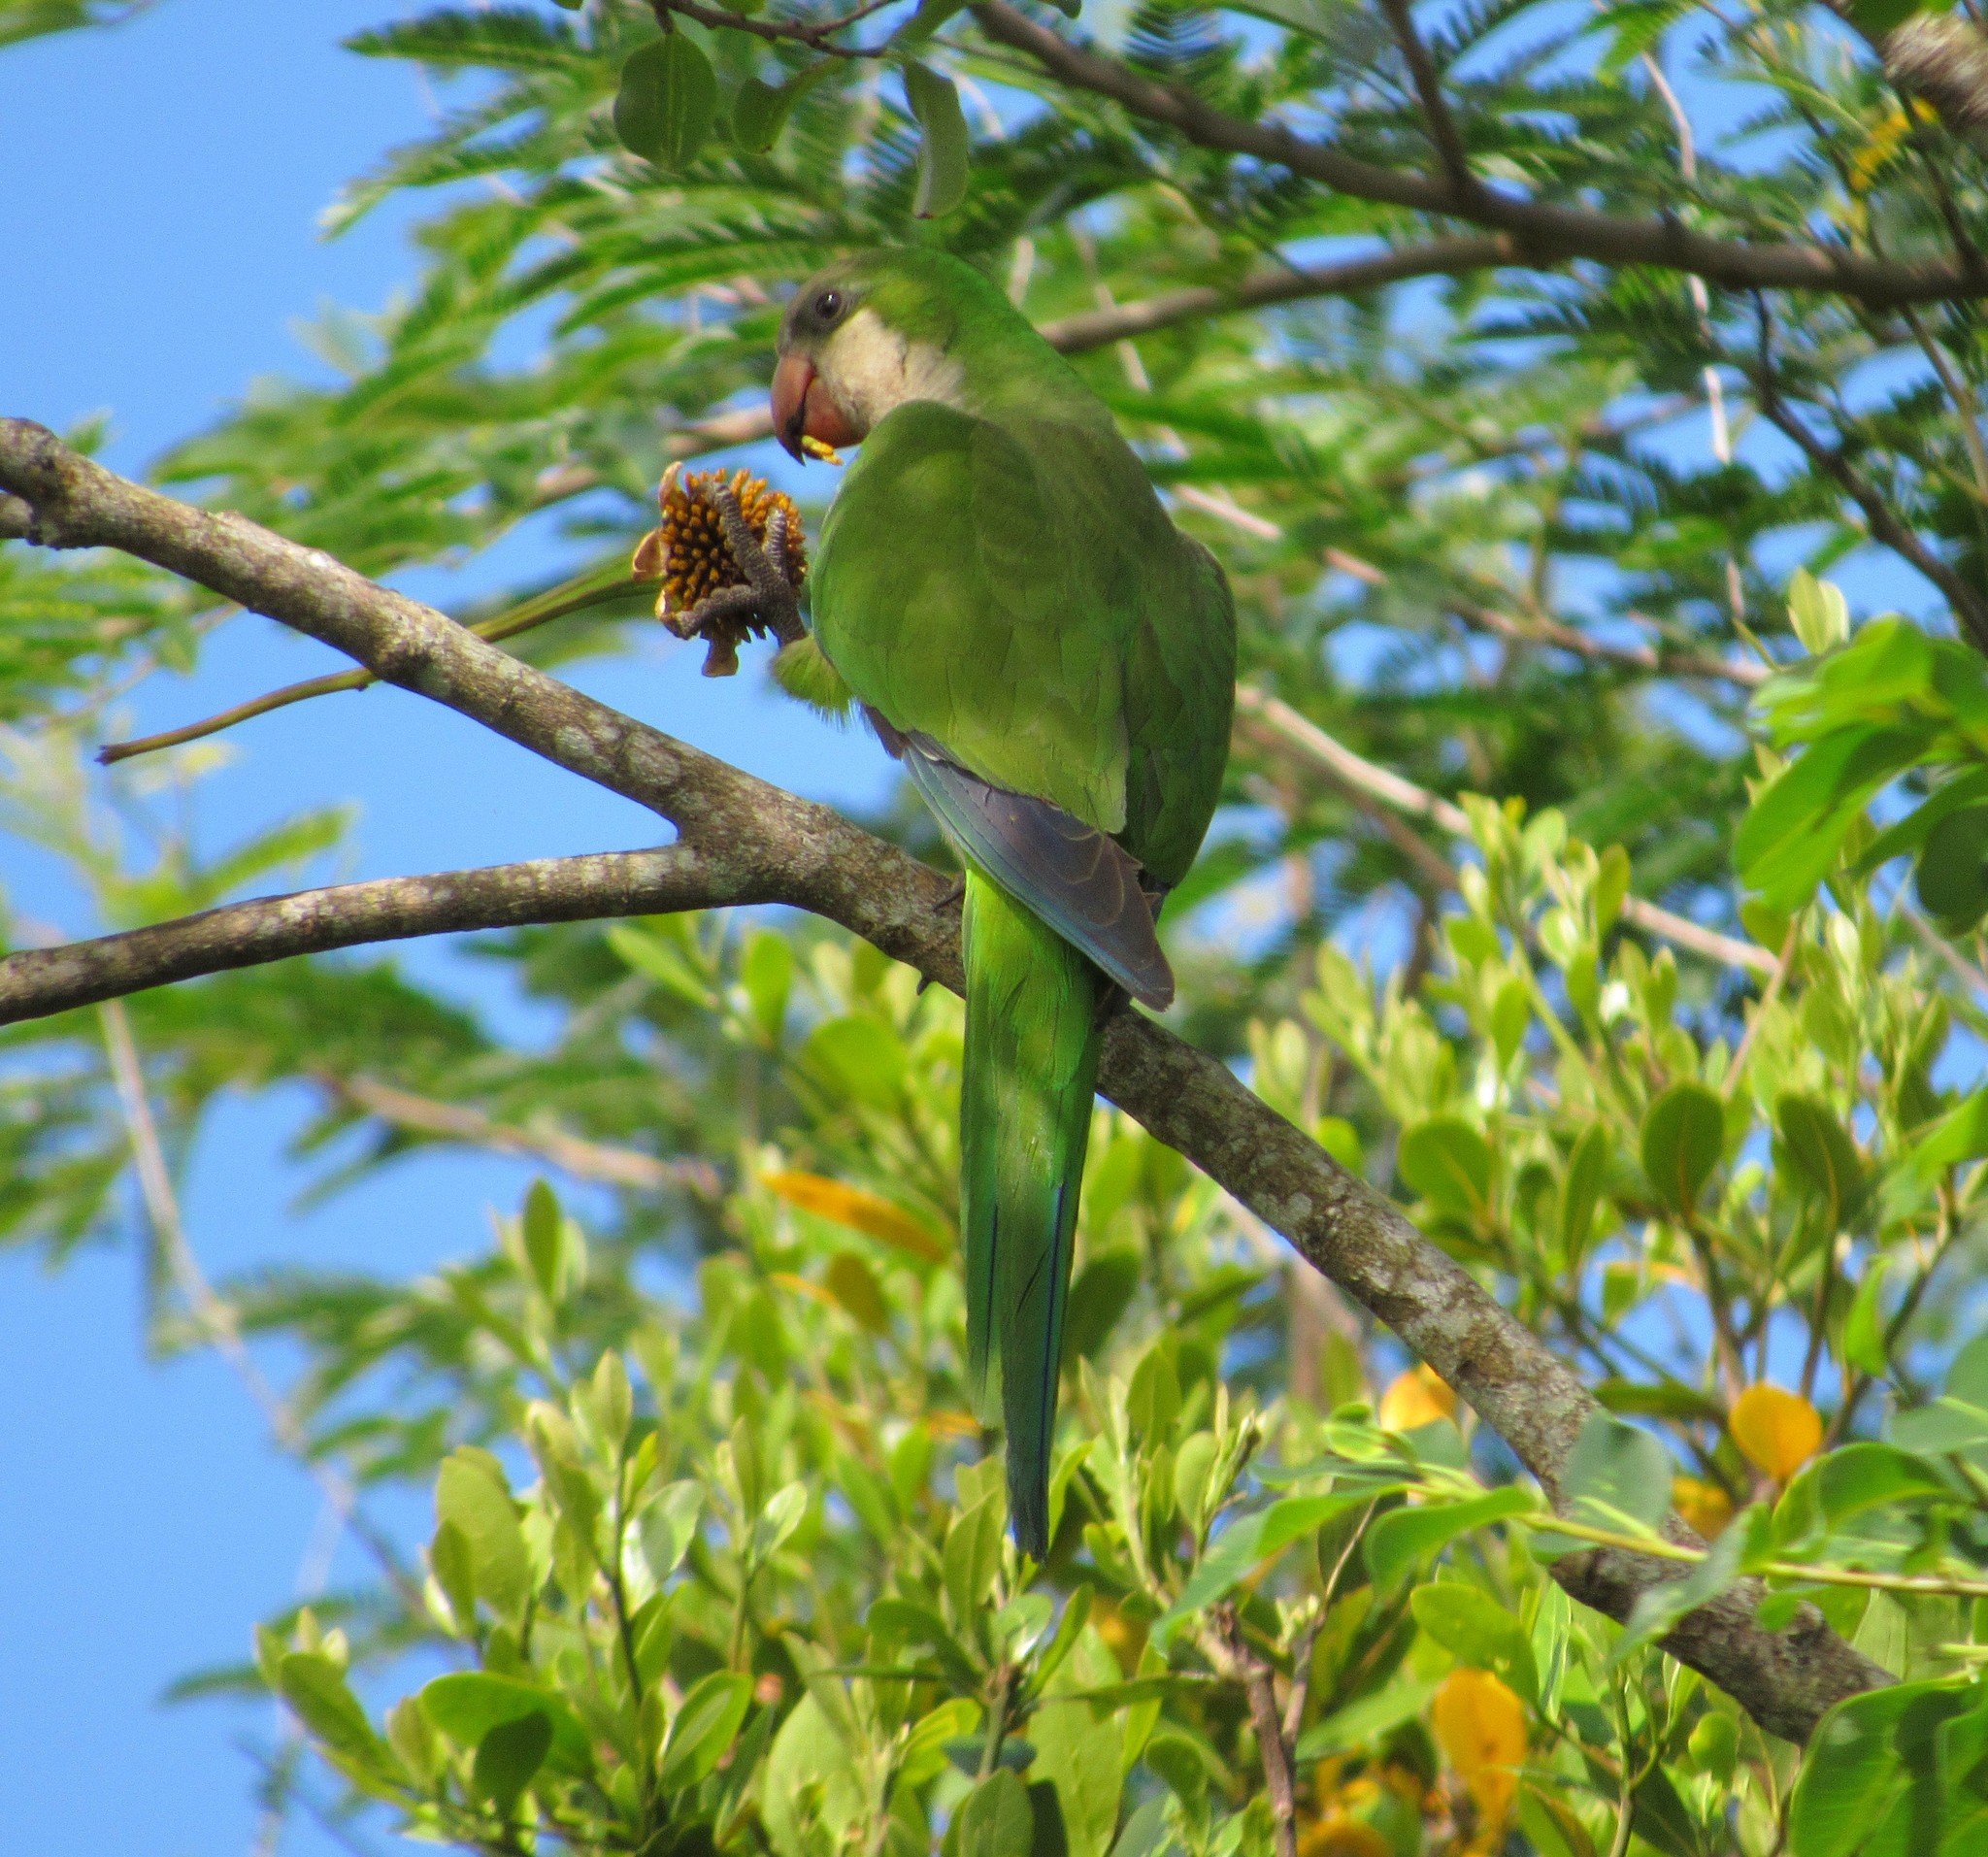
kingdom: Animalia
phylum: Chordata
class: Aves
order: Psittaciformes
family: Psittacidae
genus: Myiopsitta
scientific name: Myiopsitta monachus
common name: Monk parakeet
